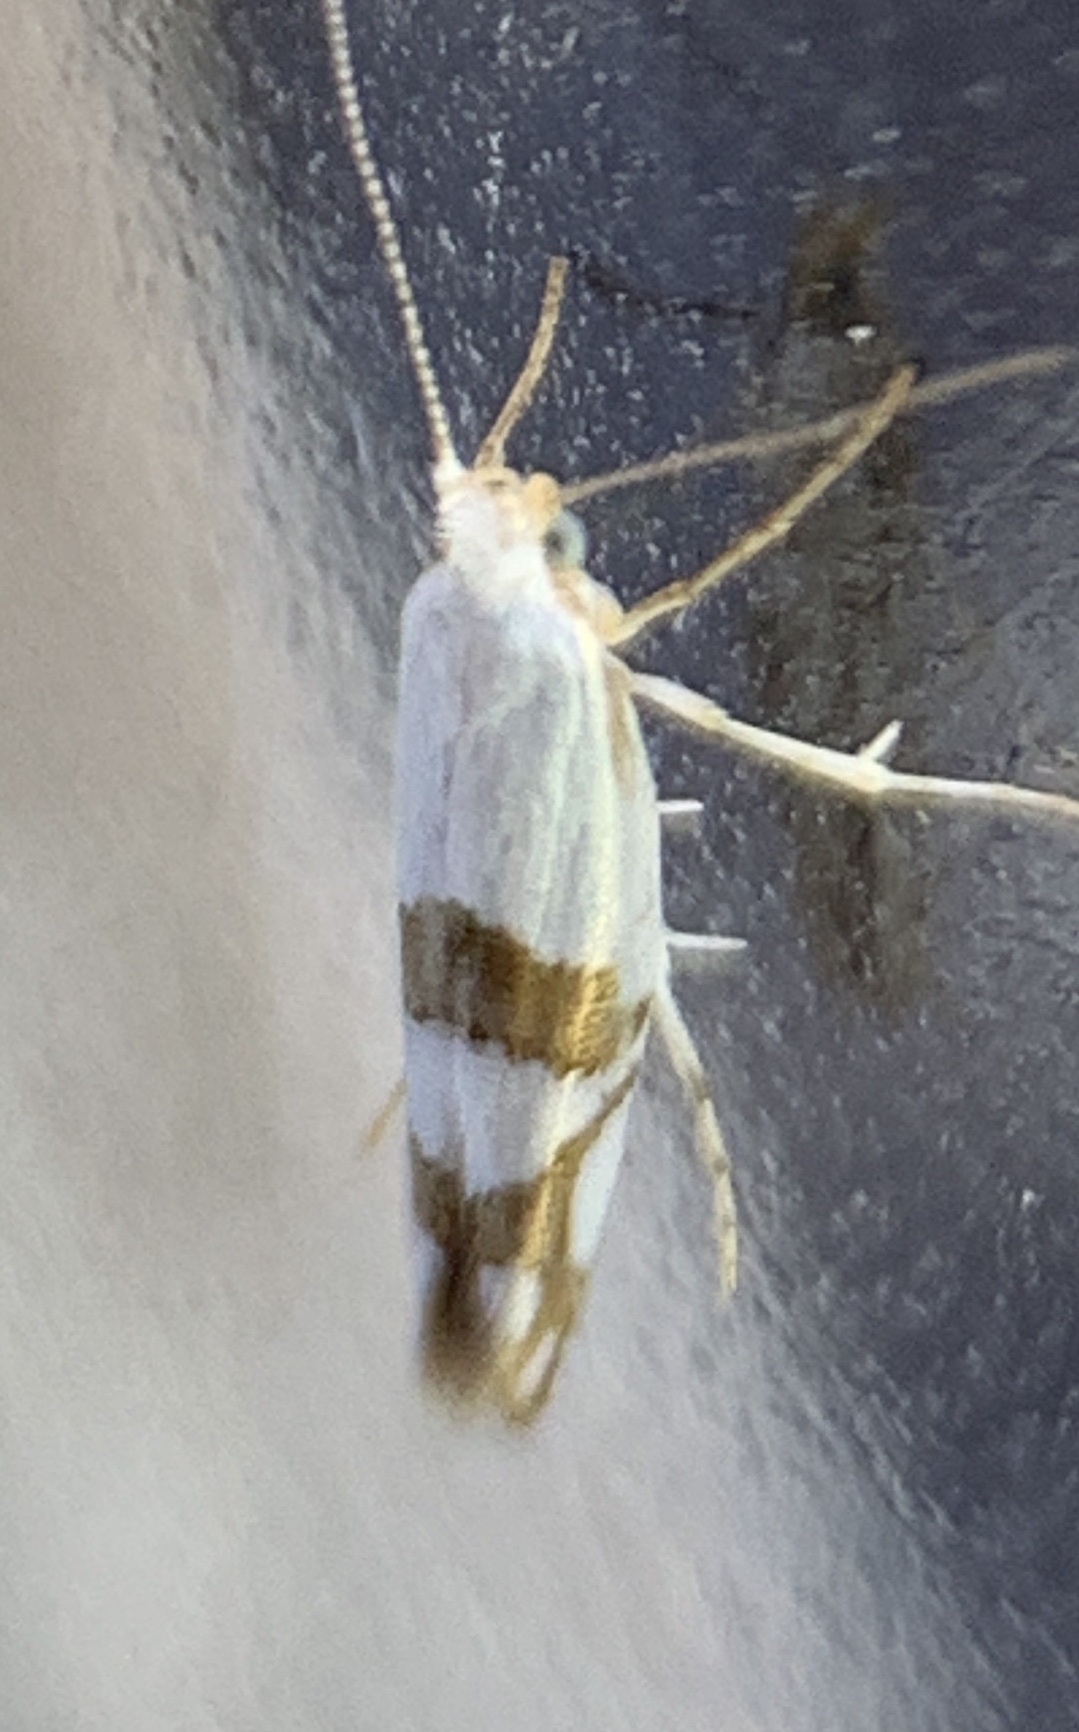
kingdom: Animalia
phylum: Arthropoda
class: Insecta
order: Lepidoptera
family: Argyresthiidae
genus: Argyresthia
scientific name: Argyresthia oreasella
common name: Cherry shoot borer moth
